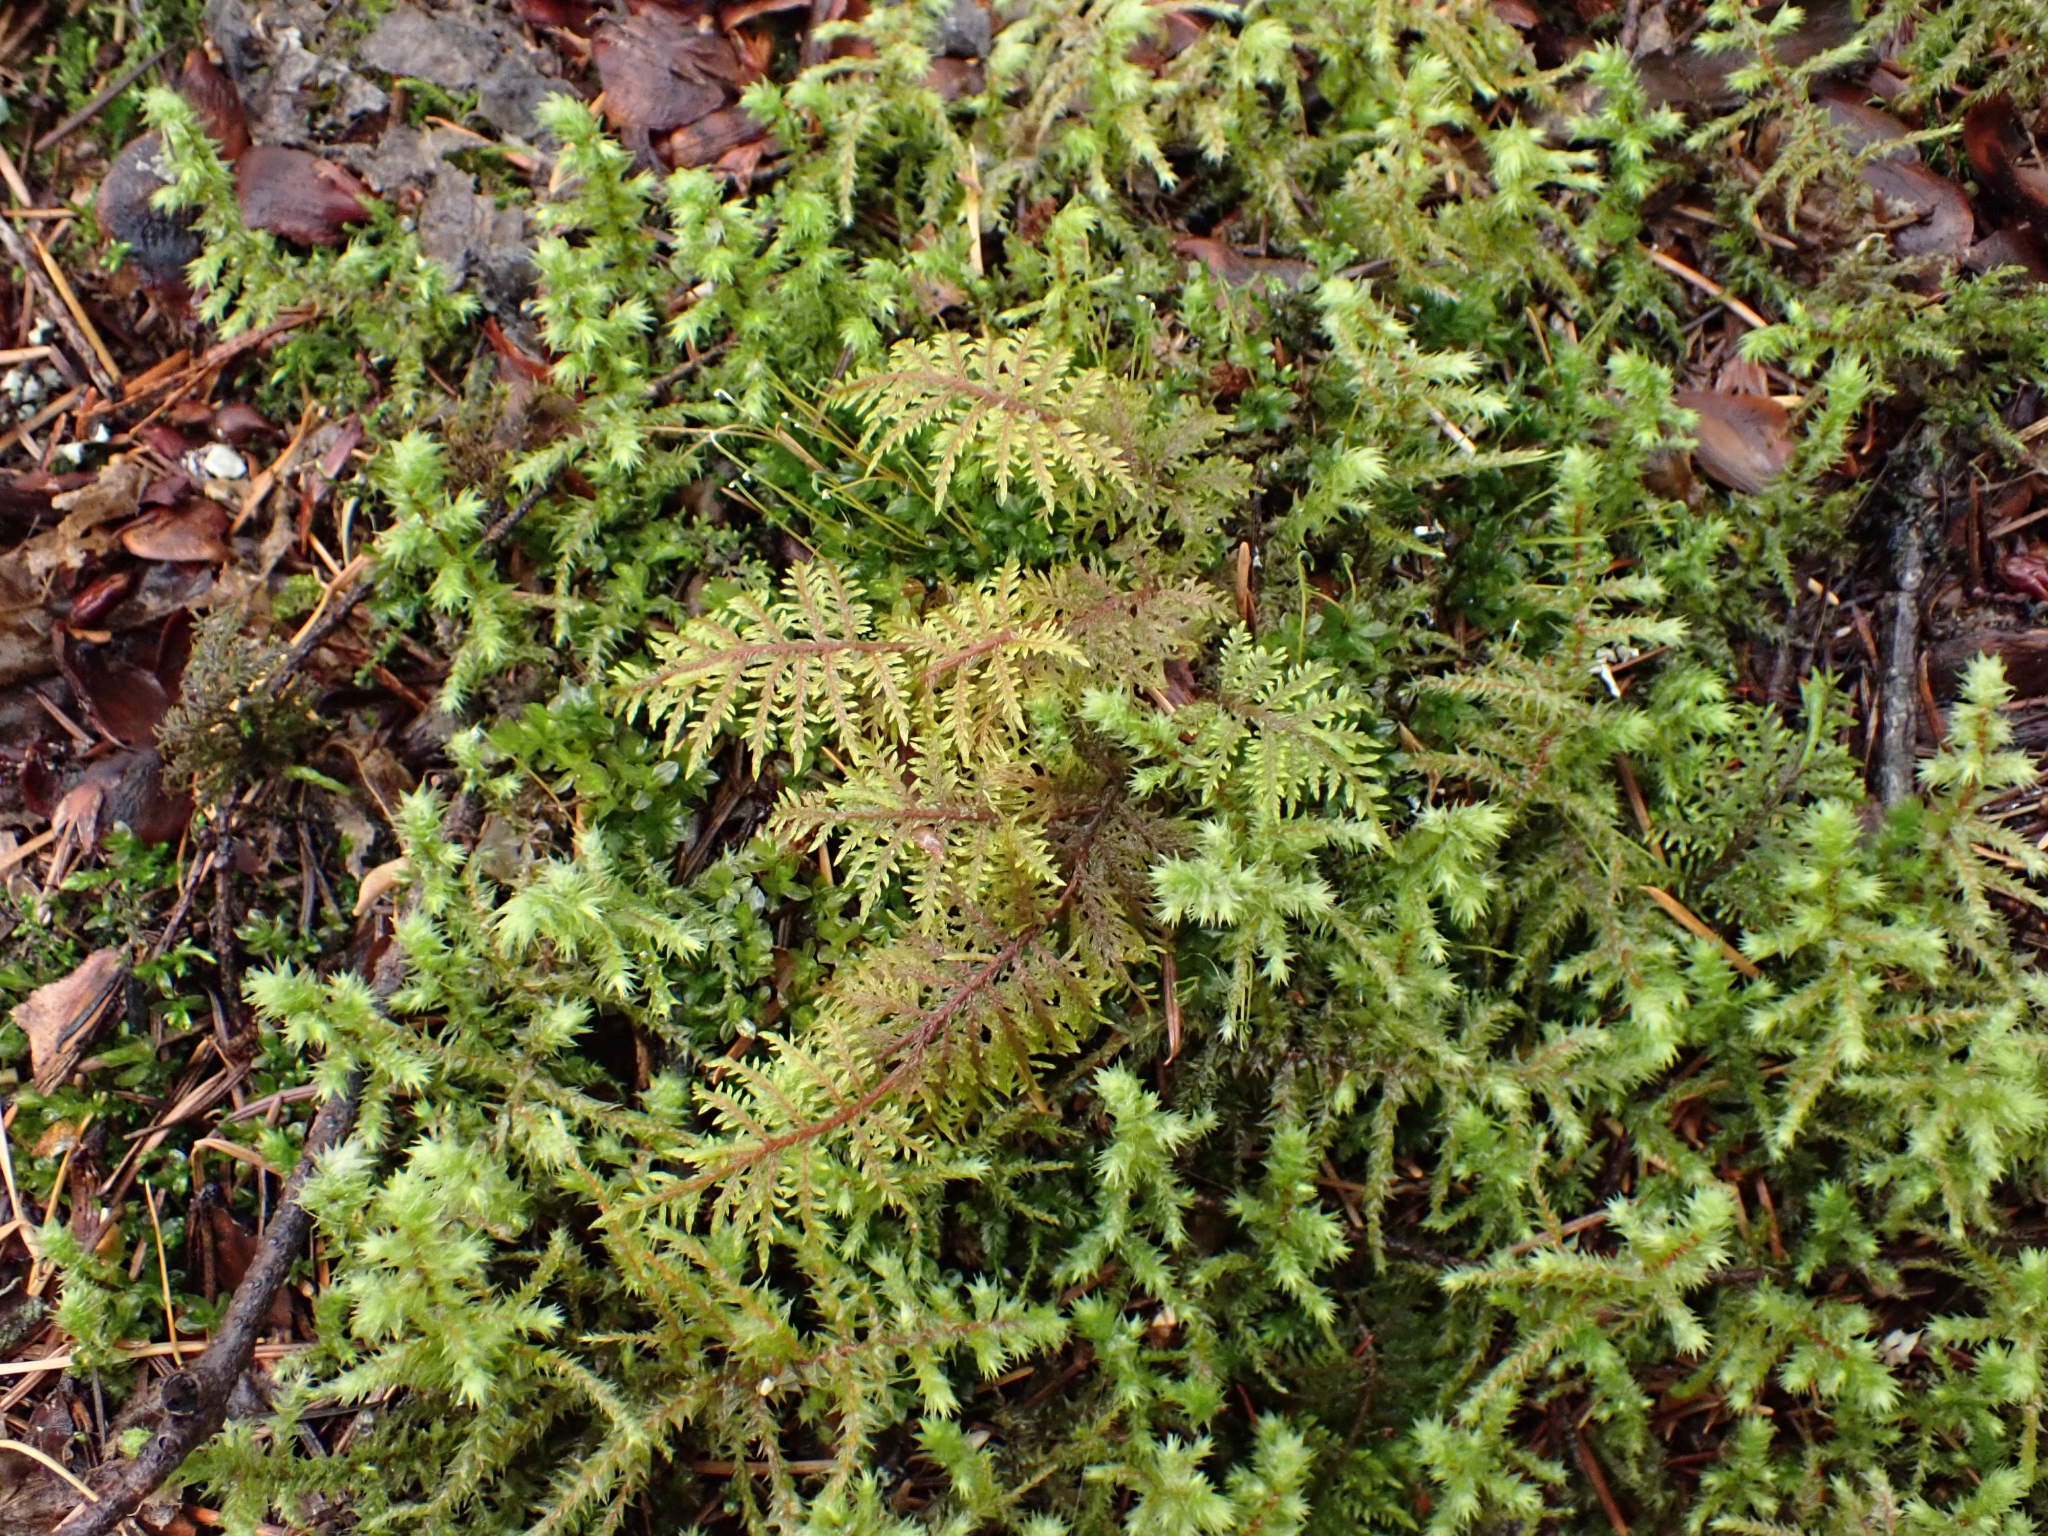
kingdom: Plantae
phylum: Bryophyta
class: Bryopsida
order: Hypnales
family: Hylocomiaceae
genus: Hylocomium
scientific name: Hylocomium splendens
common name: Stairstep moss
